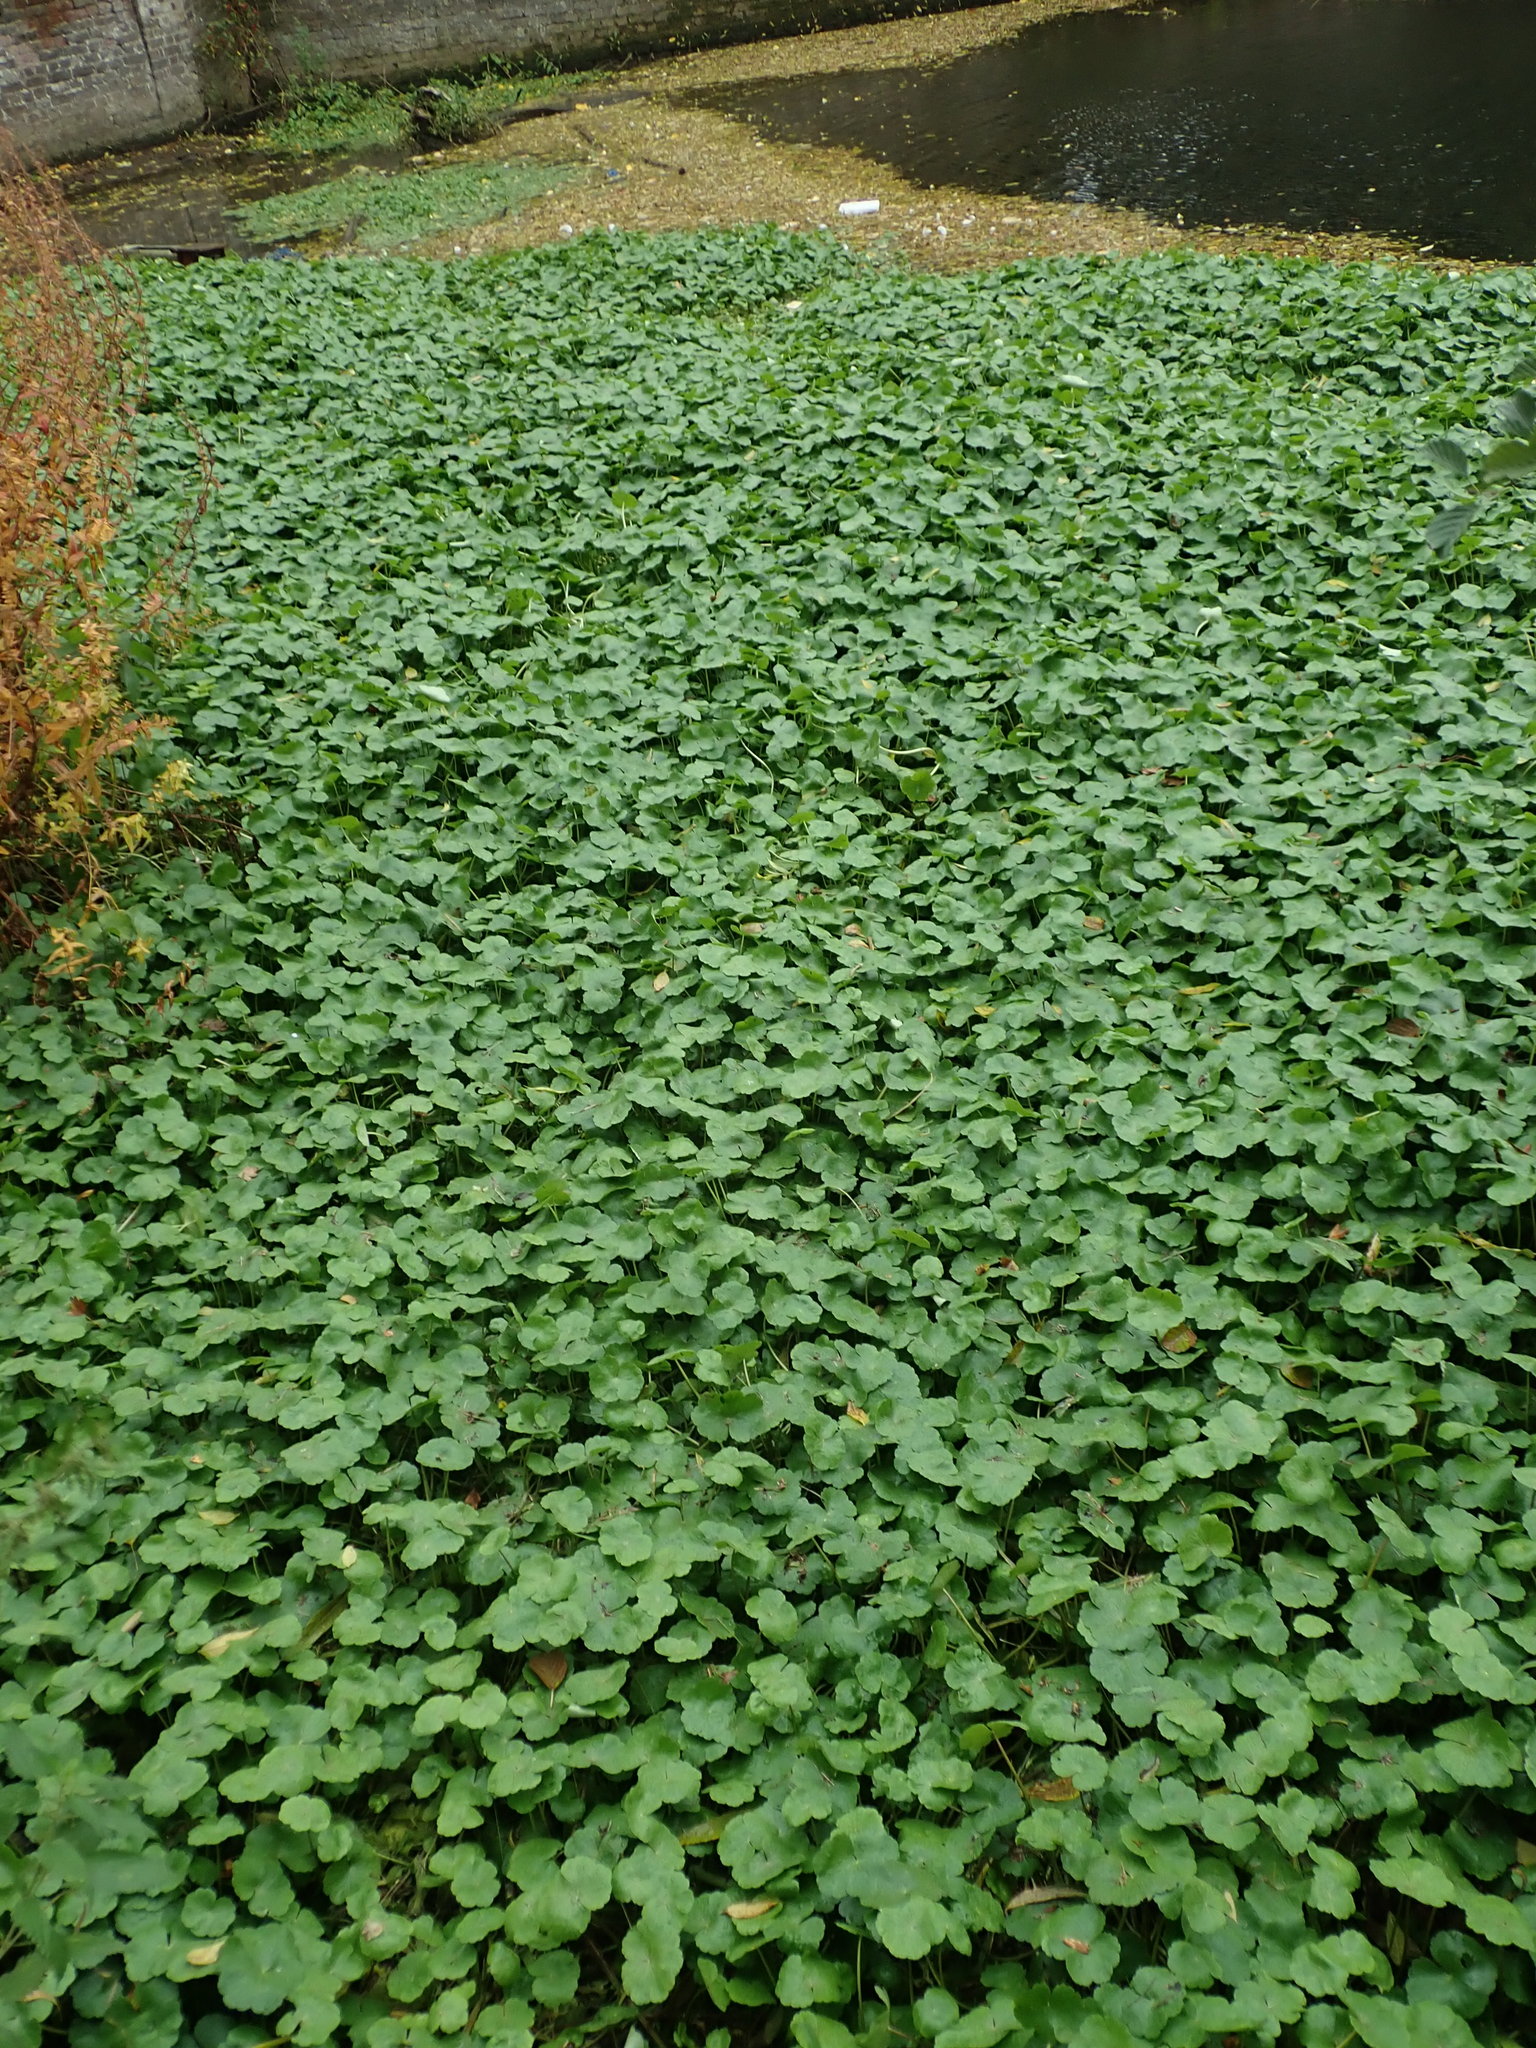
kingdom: Plantae
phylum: Tracheophyta
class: Magnoliopsida
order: Apiales
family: Araliaceae
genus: Hydrocotyle
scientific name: Hydrocotyle ranunculoides
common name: Floating pennywort
